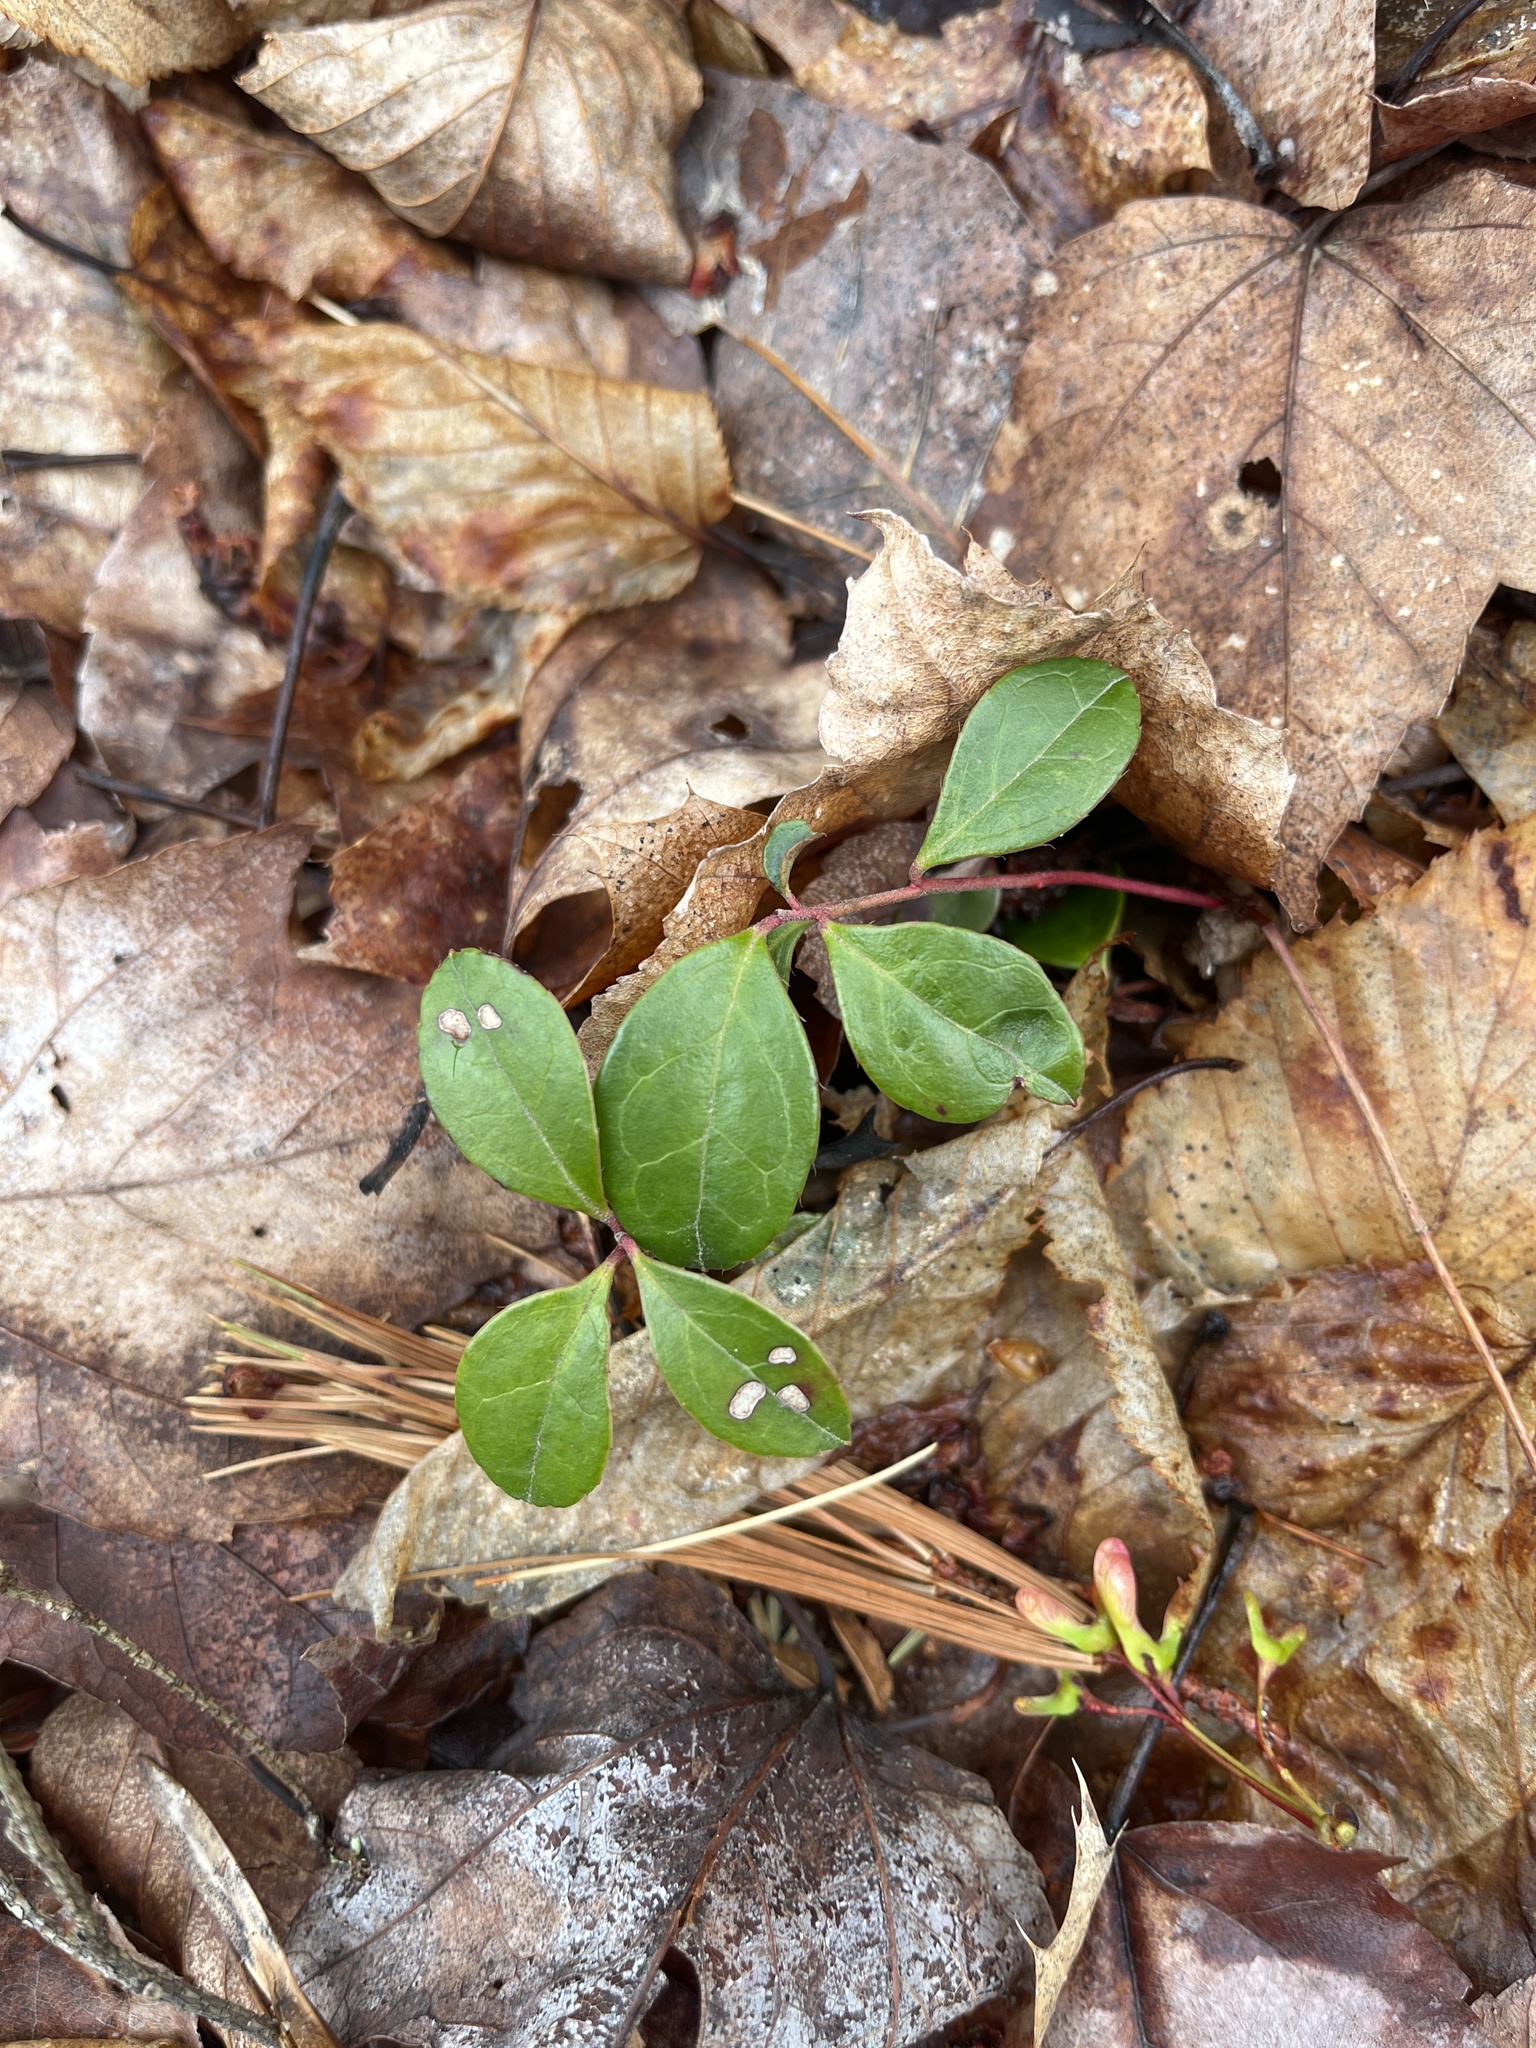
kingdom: Plantae
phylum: Tracheophyta
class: Magnoliopsida
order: Ericales
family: Ericaceae
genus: Gaultheria
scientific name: Gaultheria procumbens
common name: Checkerberry
